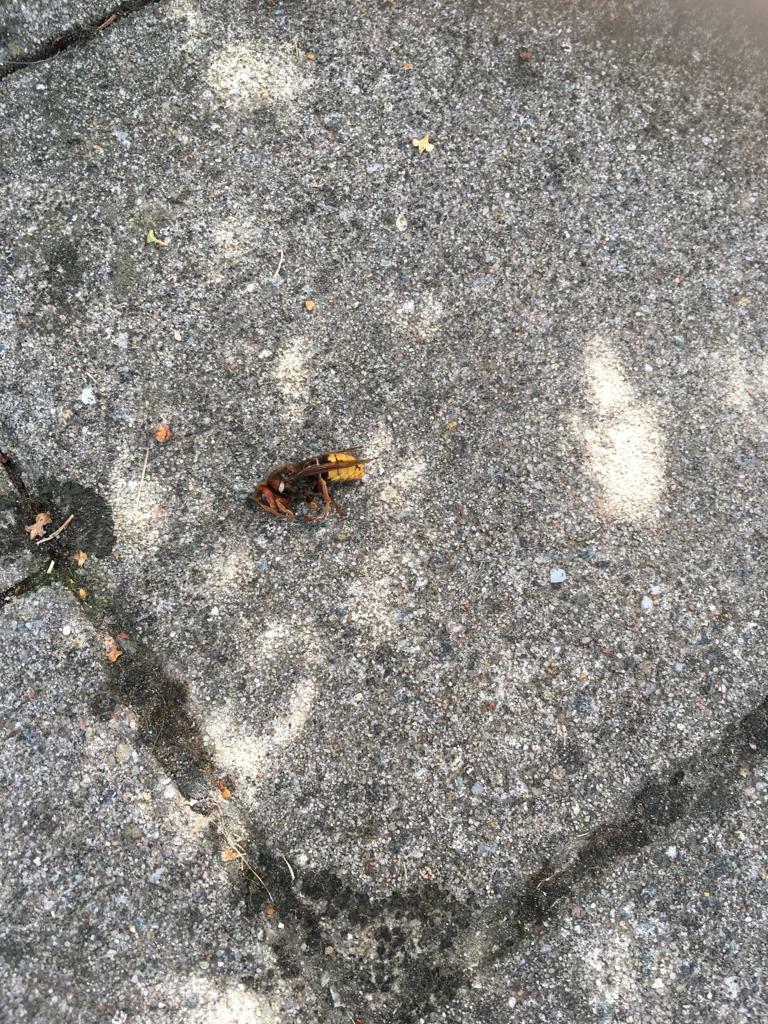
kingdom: Animalia
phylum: Arthropoda
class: Insecta
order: Hymenoptera
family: Vespidae
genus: Vespa
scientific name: Vespa crabro
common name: Hornet
